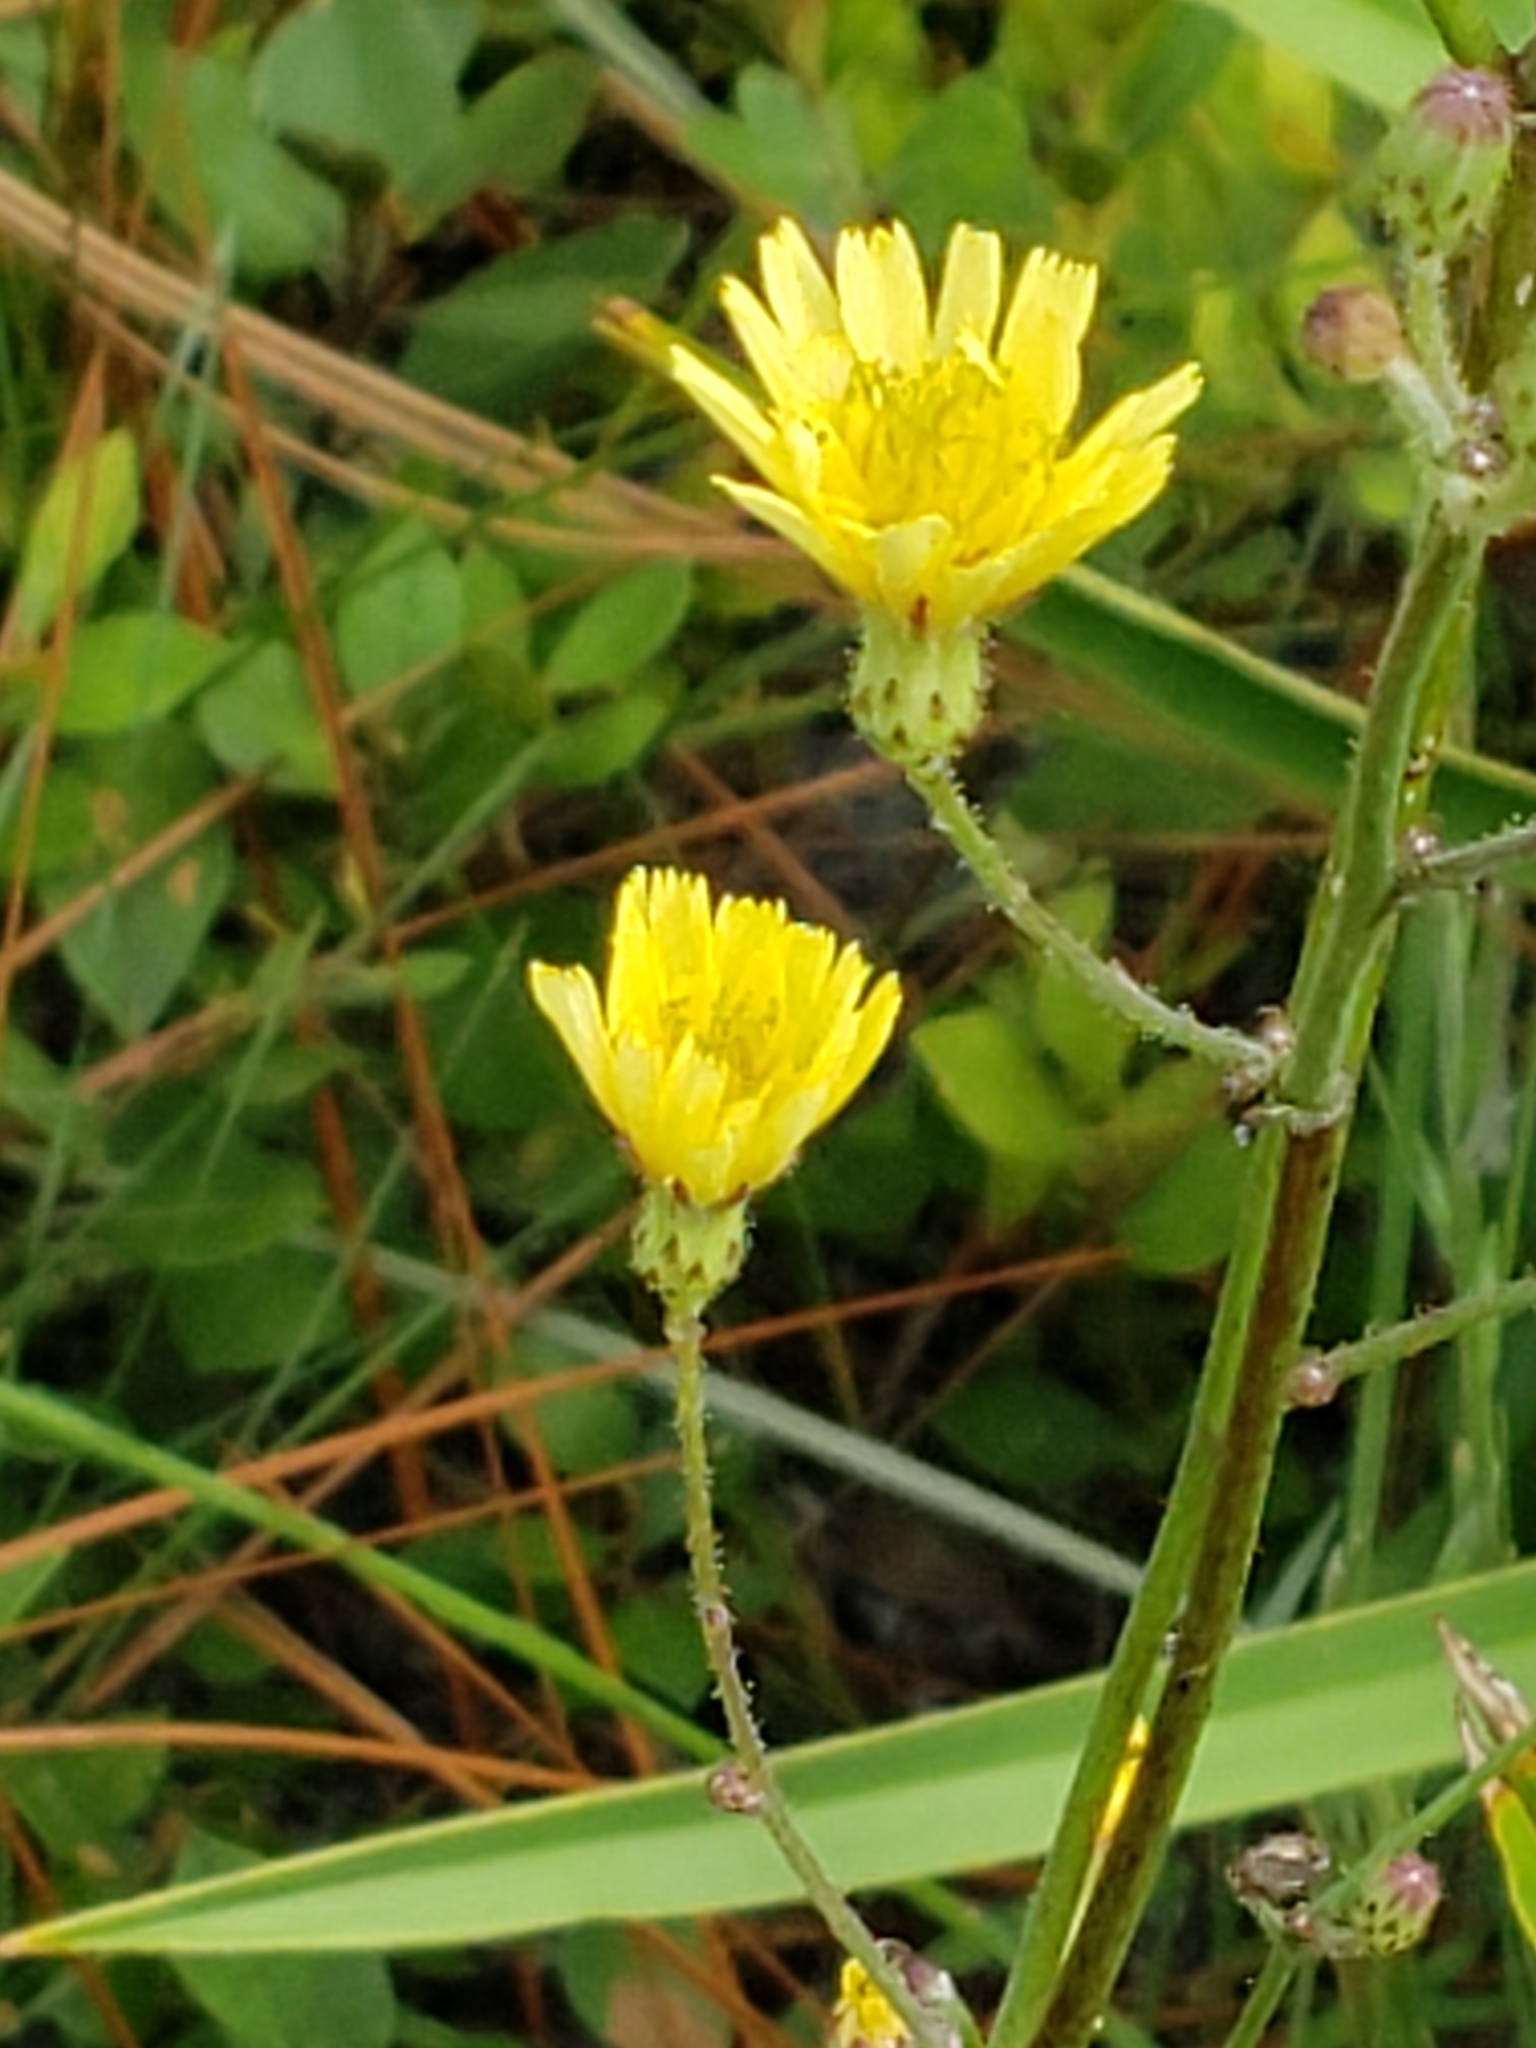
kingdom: Plantae
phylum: Tracheophyta
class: Magnoliopsida
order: Asterales
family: Asteraceae
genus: Hieracium
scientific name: Hieracium gronovii
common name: Beaked hawkweed
